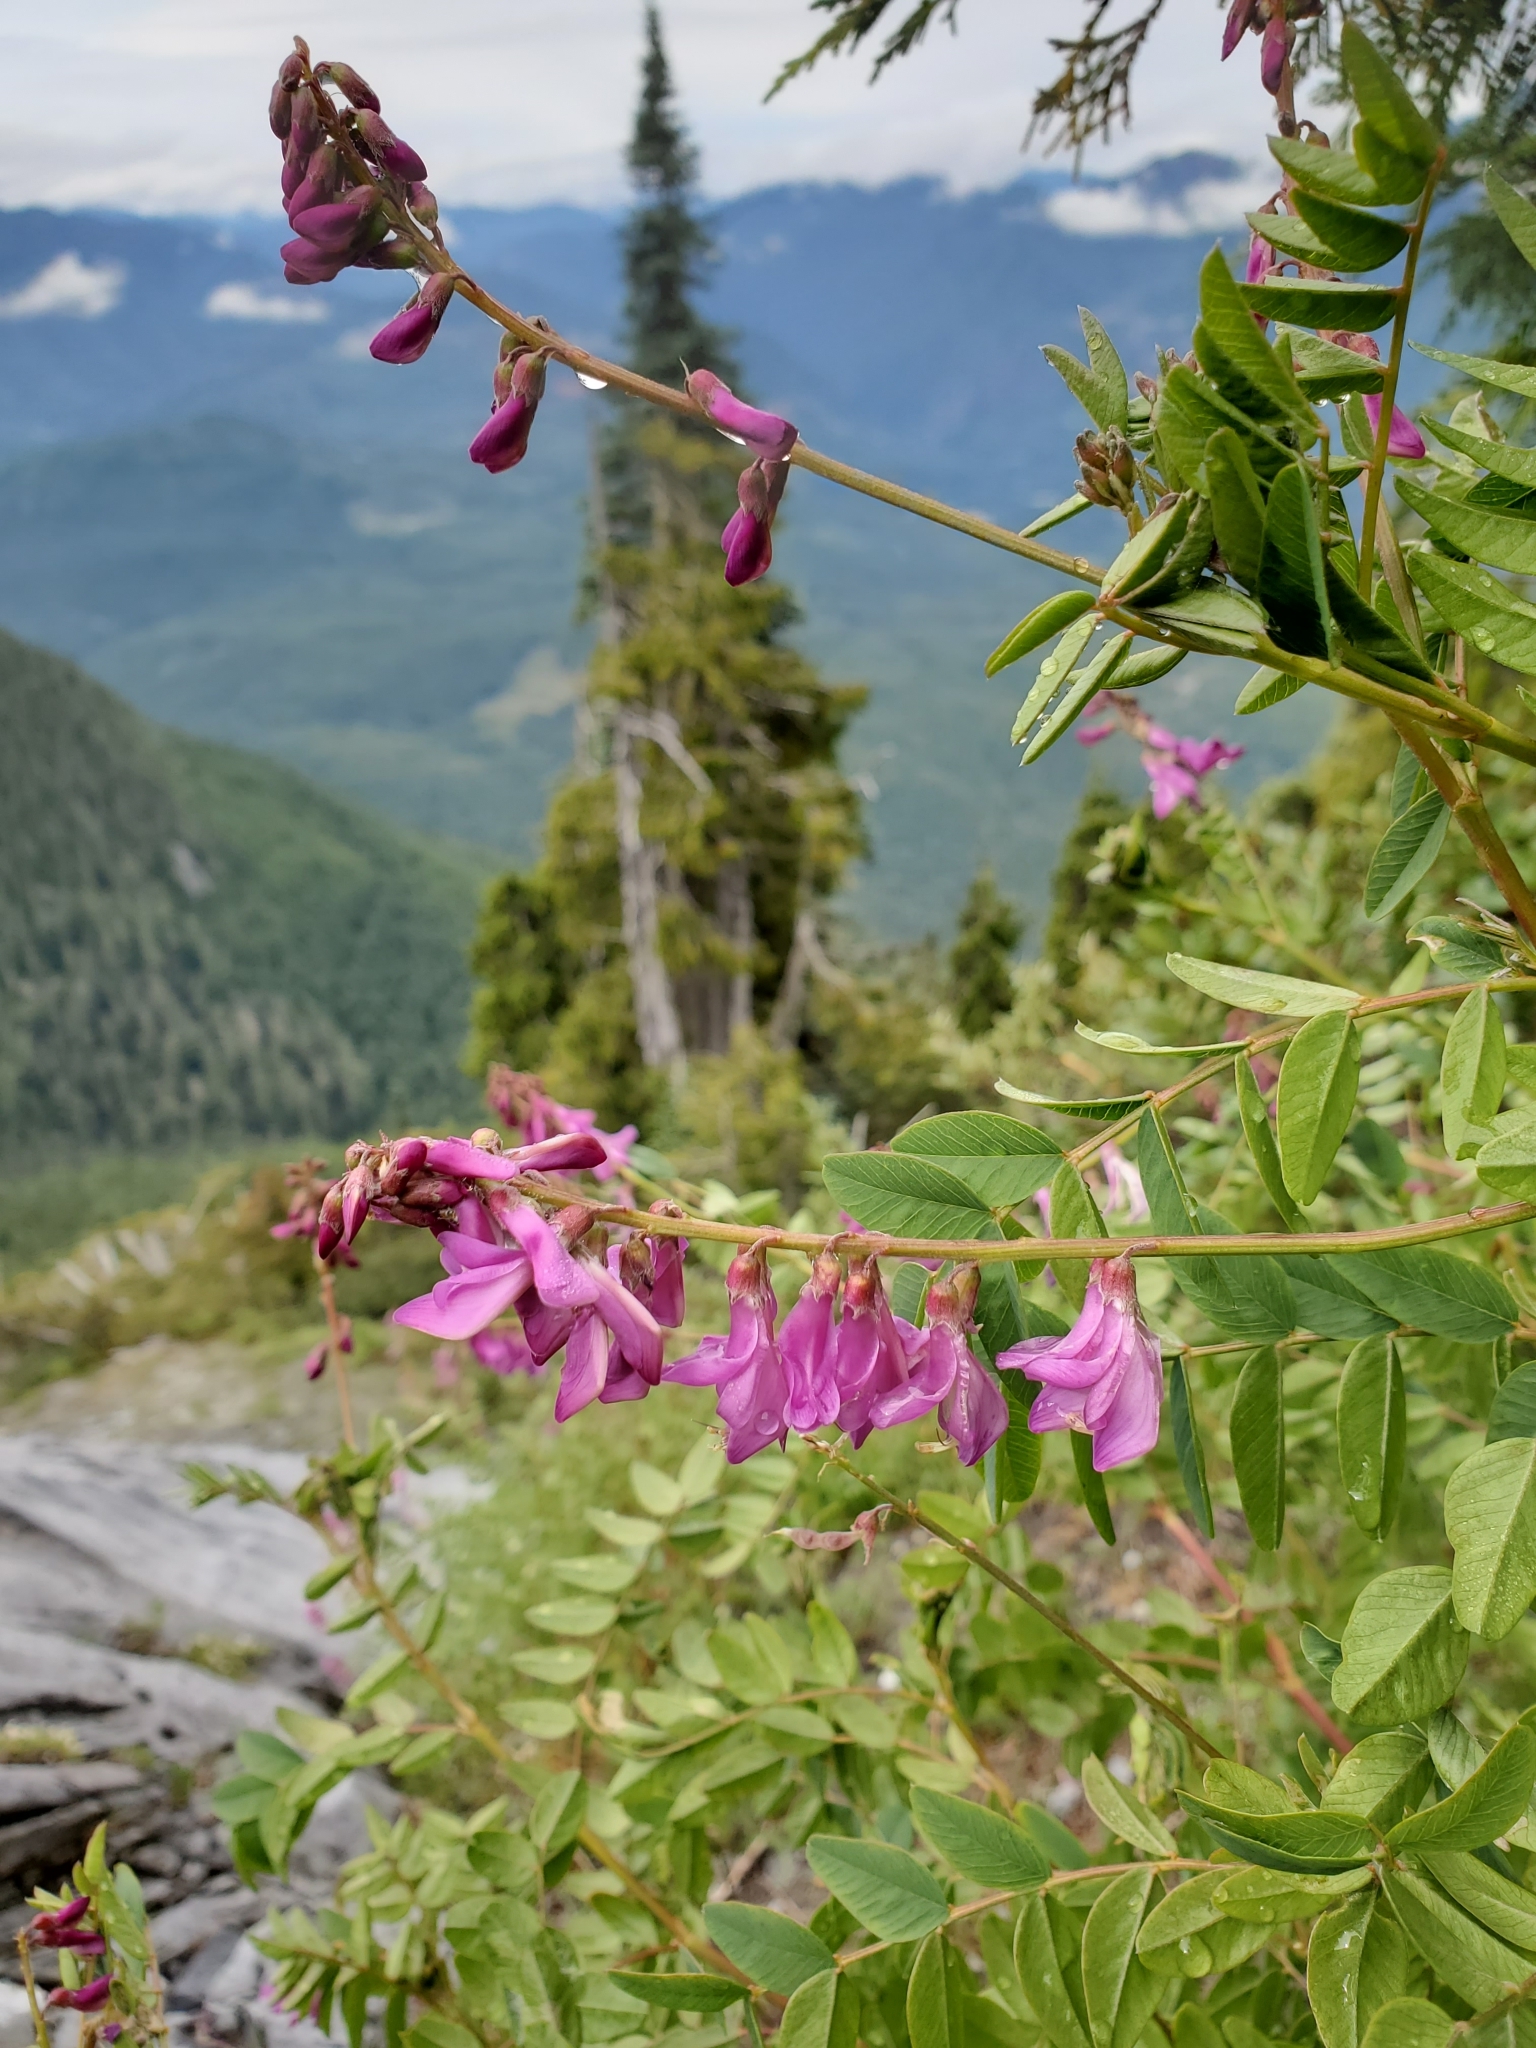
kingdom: Plantae
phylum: Tracheophyta
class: Magnoliopsida
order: Fabales
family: Fabaceae
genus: Hedysarum
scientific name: Hedysarum occidentale
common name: Western hedysarum
